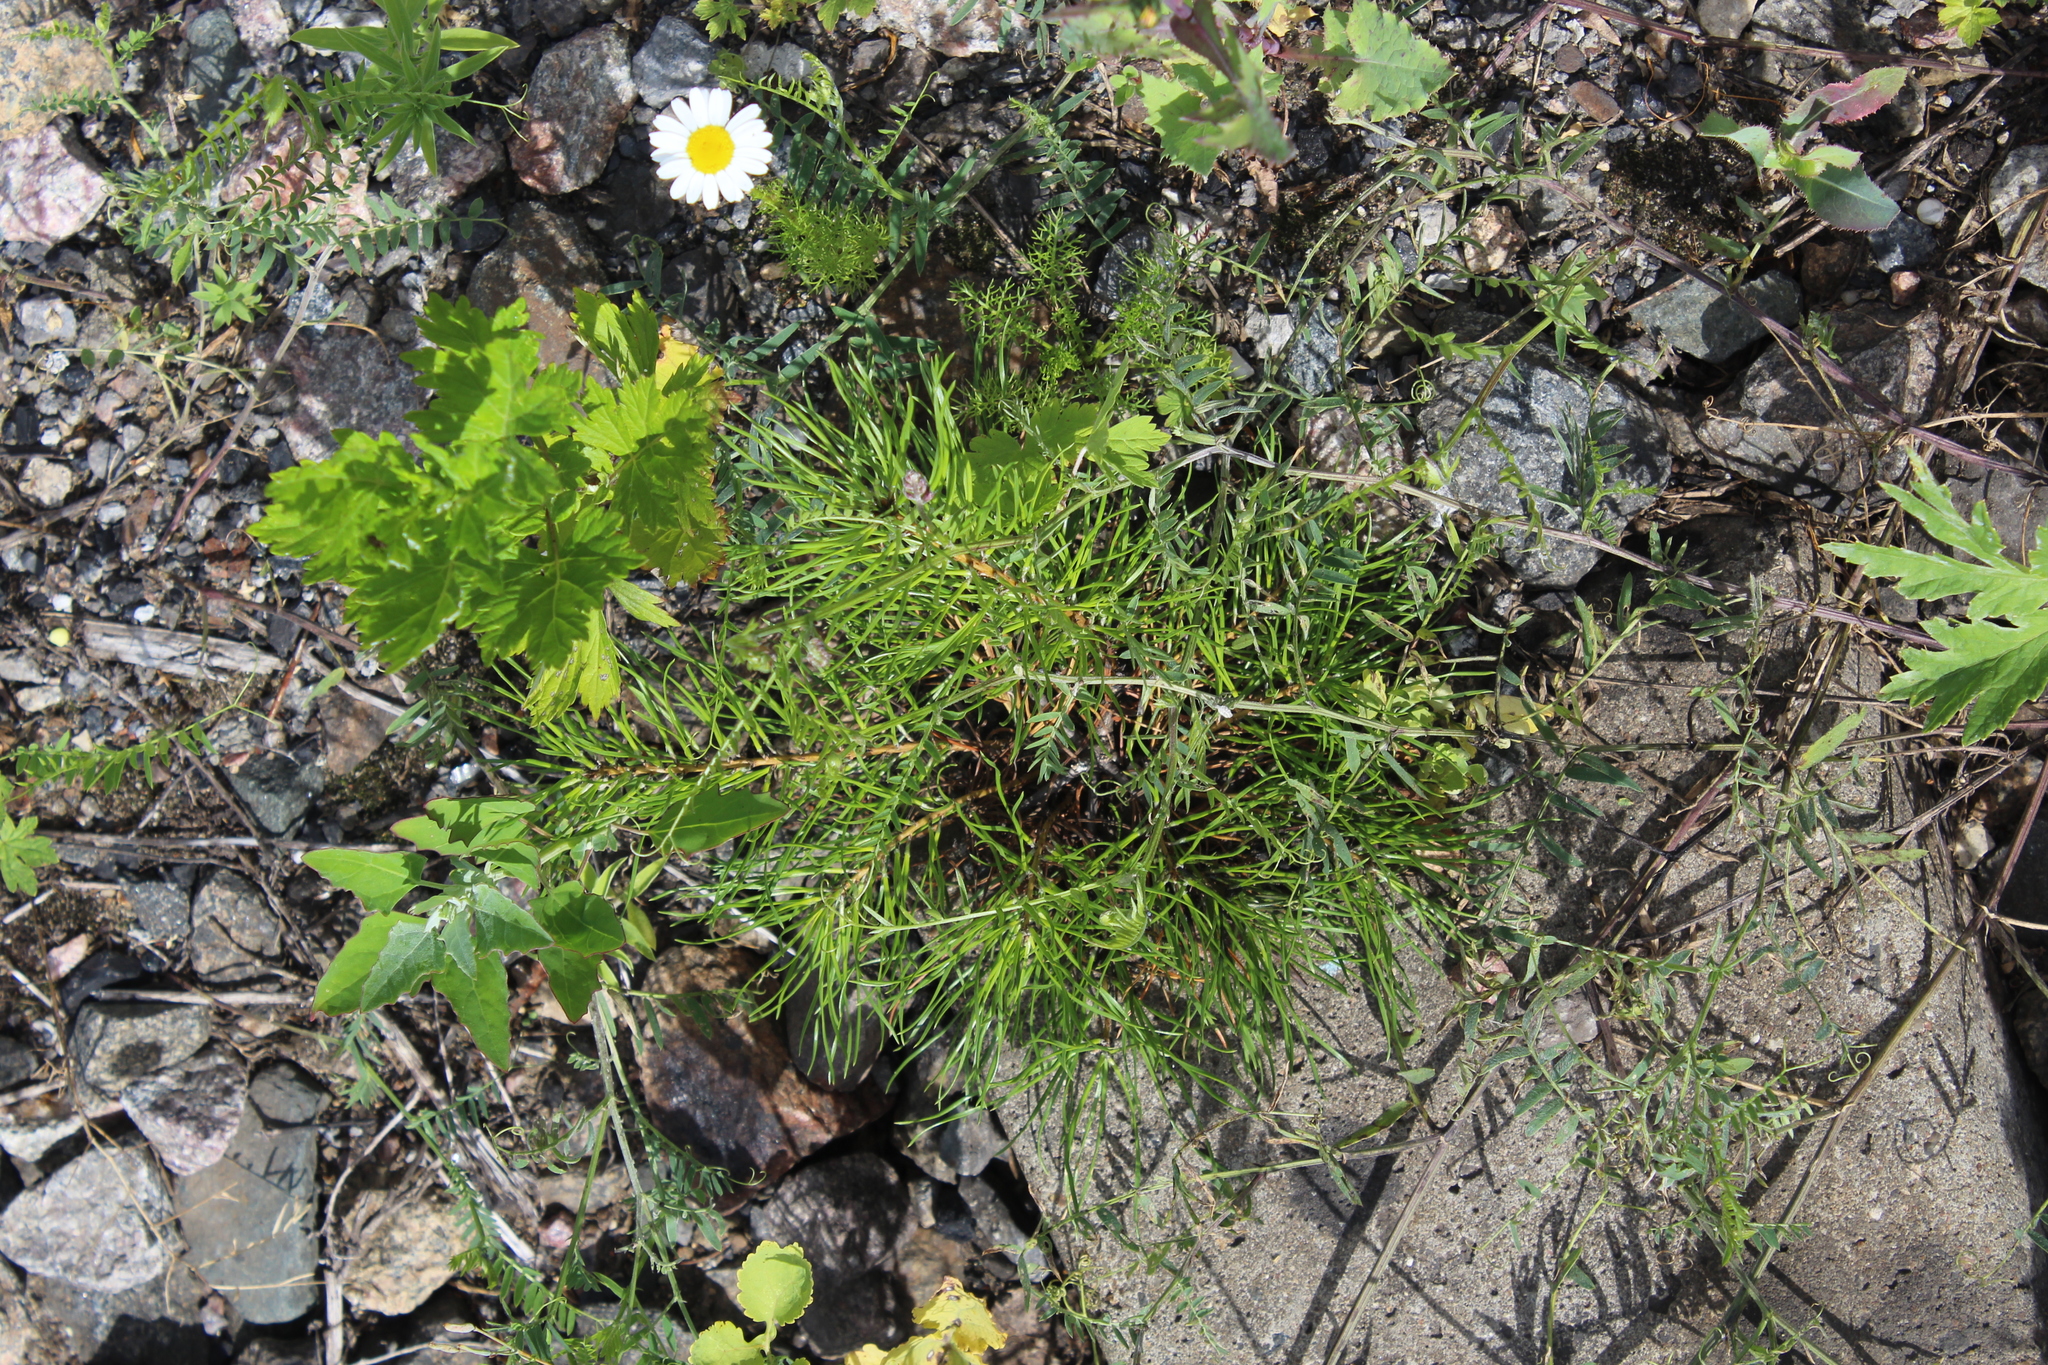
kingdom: Plantae
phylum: Tracheophyta
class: Pinopsida
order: Pinales
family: Pinaceae
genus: Pinus
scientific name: Pinus sylvestris
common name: Scots pine
